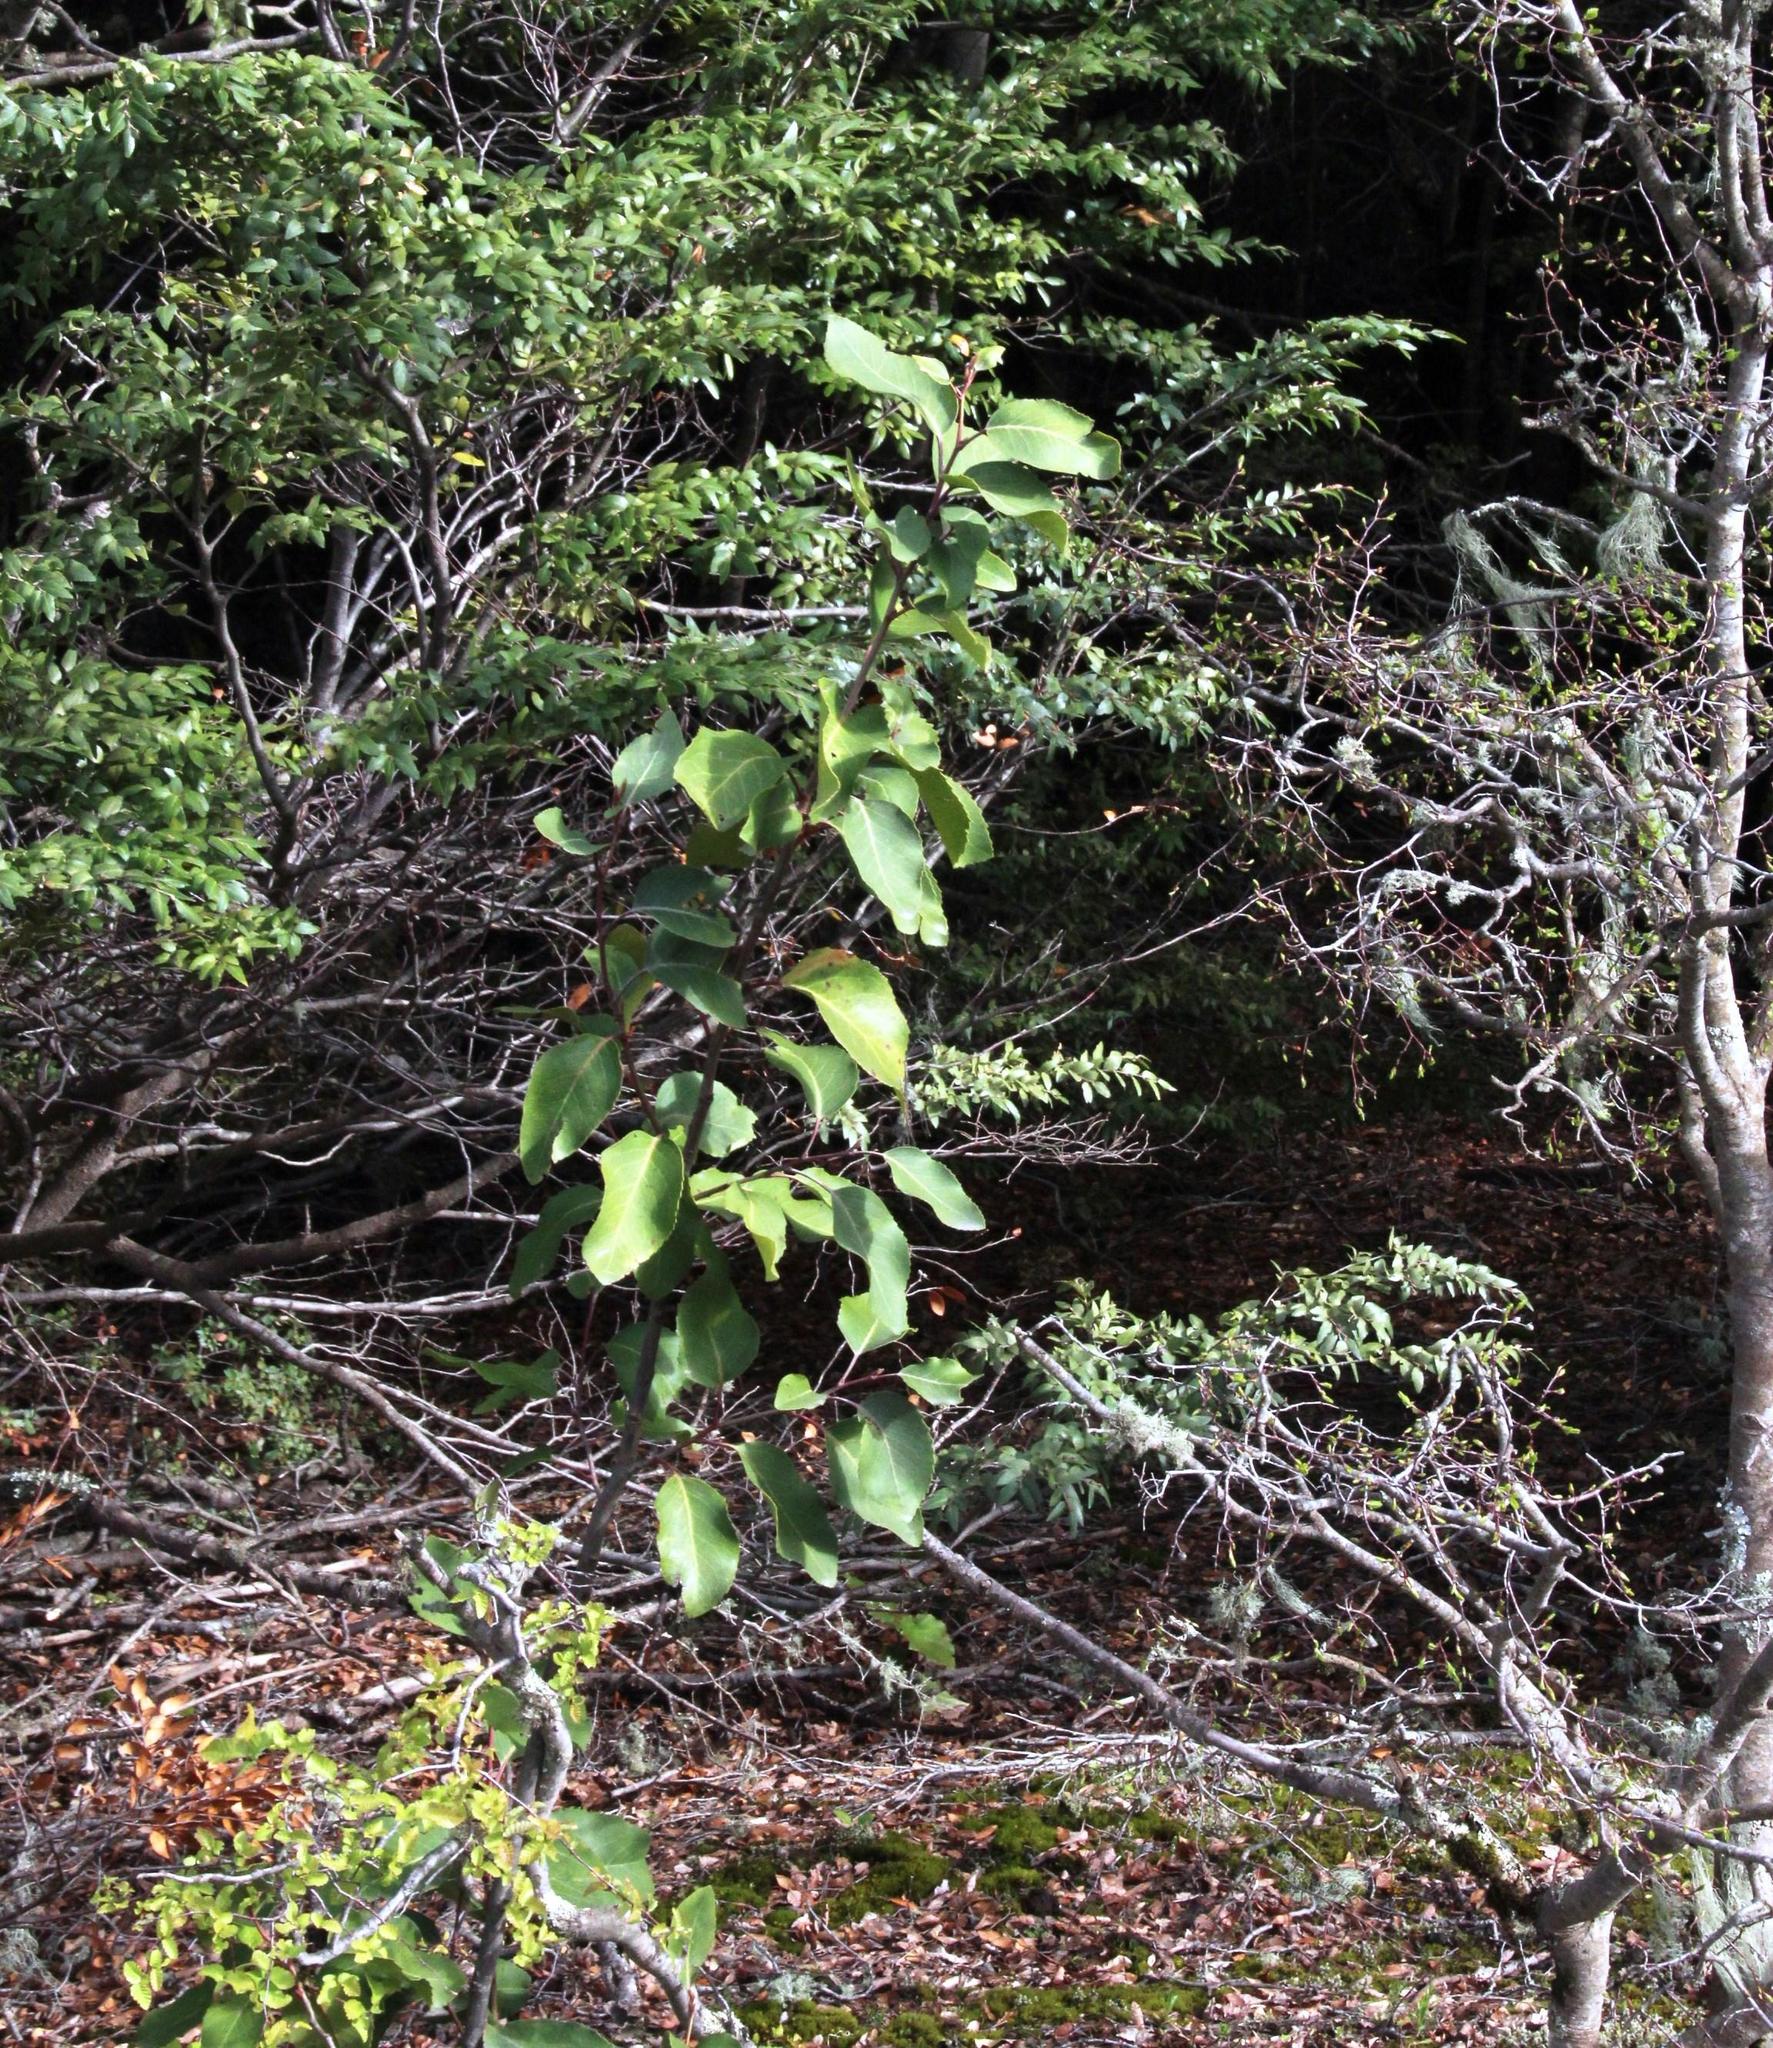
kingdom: Plantae
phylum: Tracheophyta
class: Magnoliopsida
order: Proteales
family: Proteaceae
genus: Lomatia
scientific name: Lomatia hirsuta
